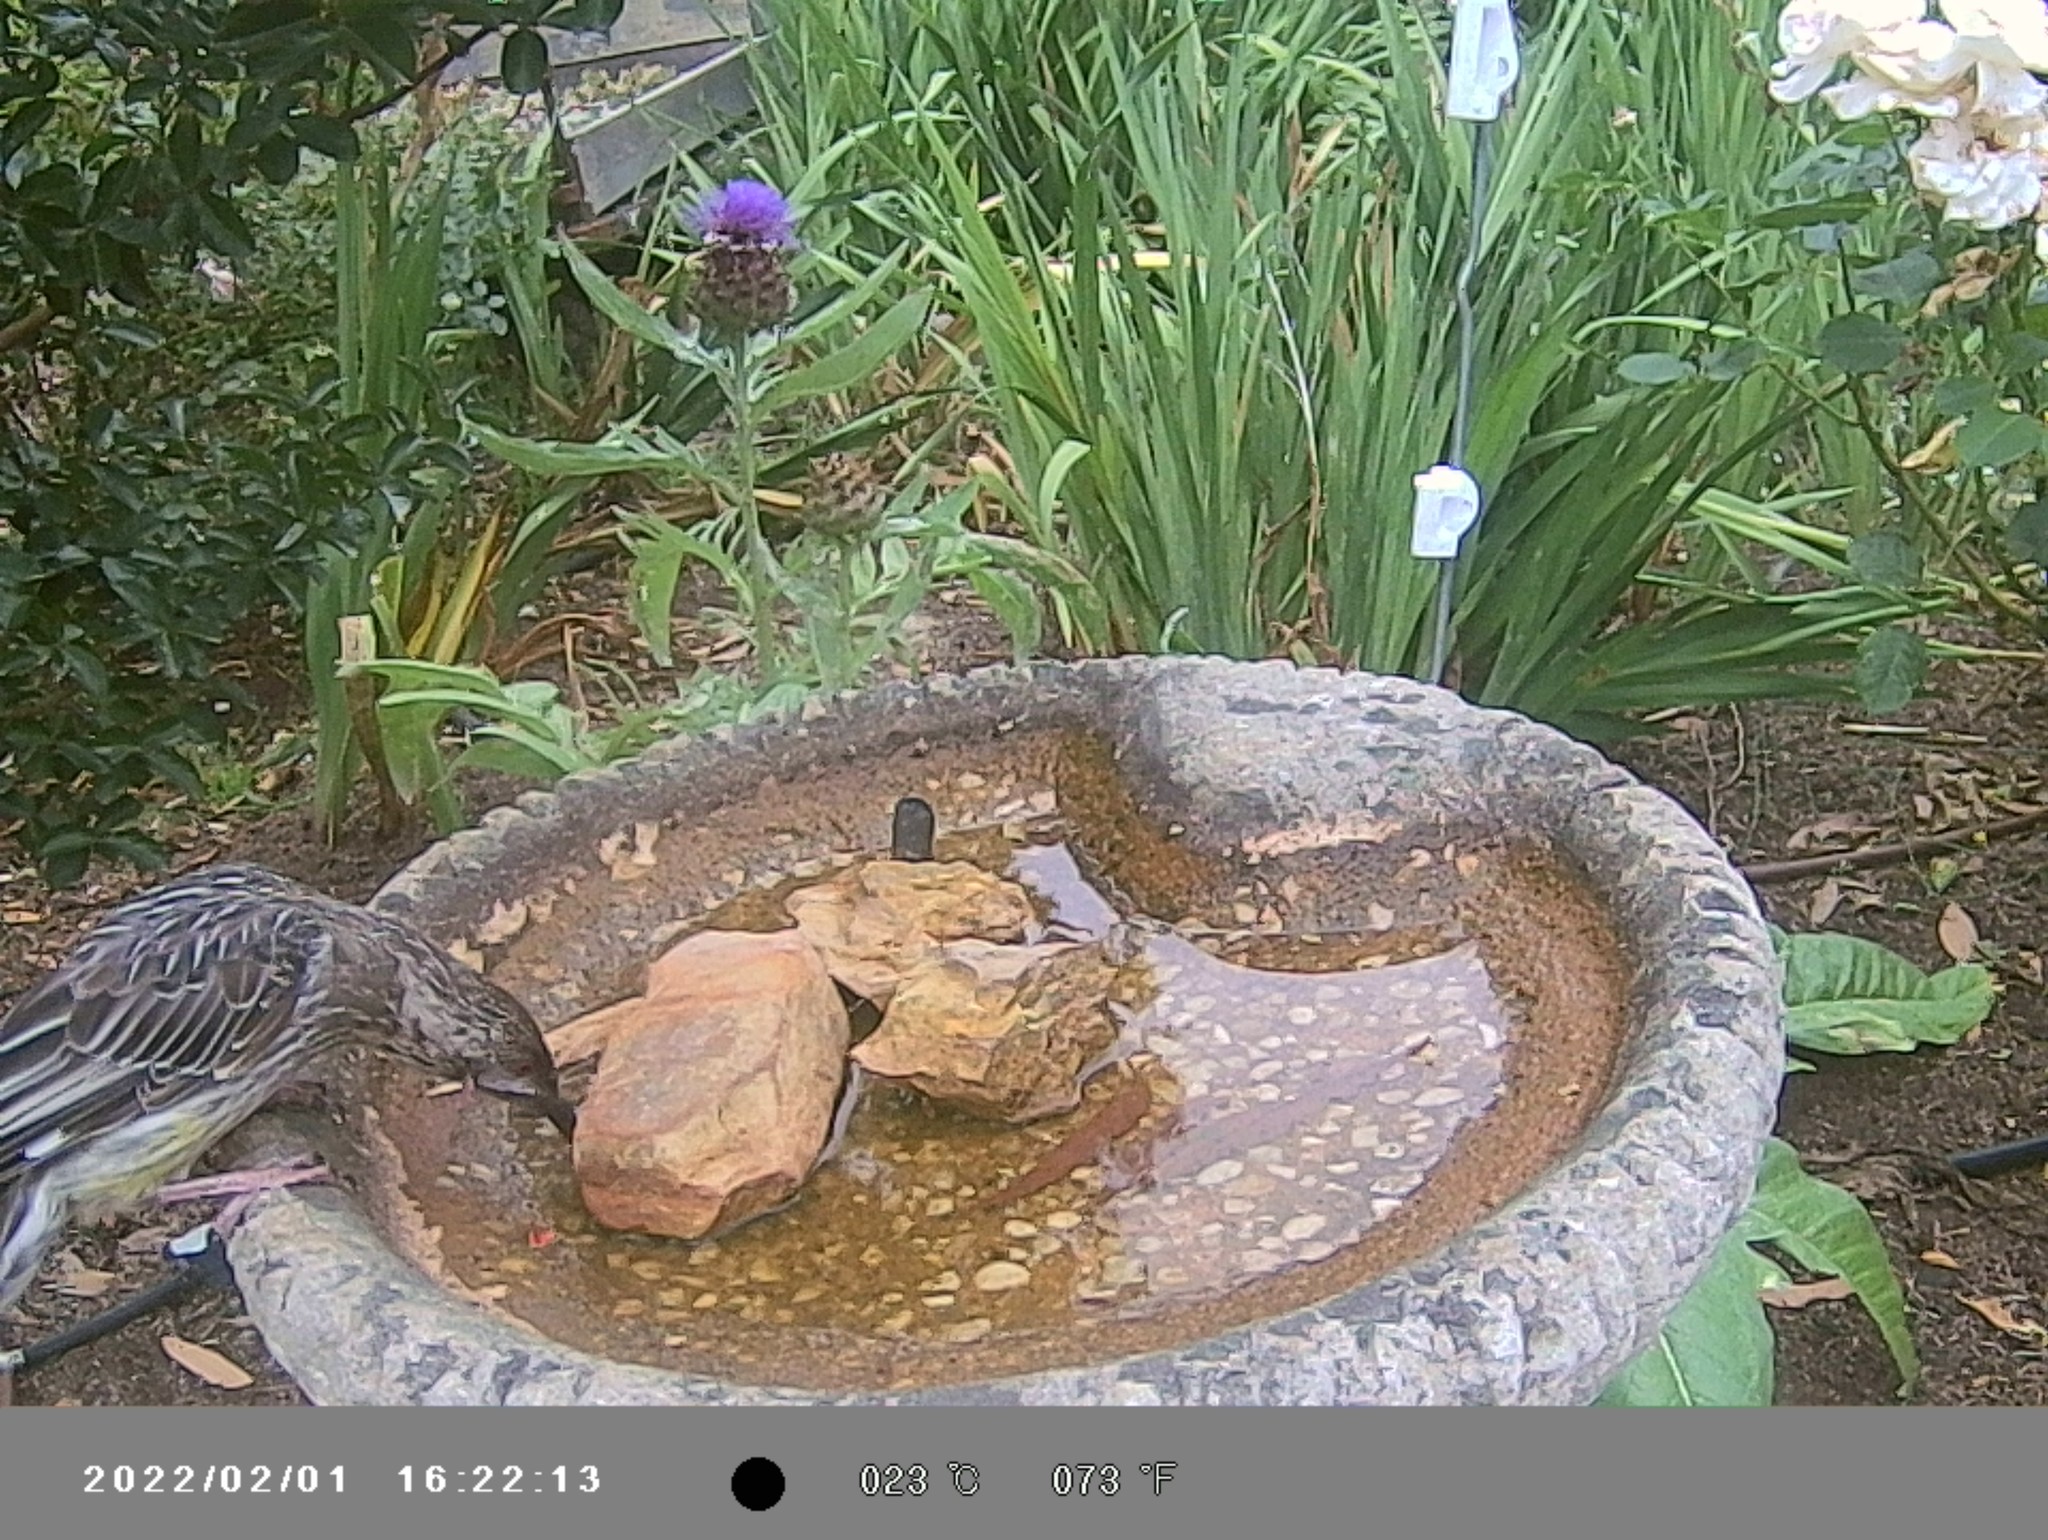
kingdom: Animalia
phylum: Chordata
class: Aves
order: Passeriformes
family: Meliphagidae
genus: Anthochaera
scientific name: Anthochaera carunculata
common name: Red wattlebird
